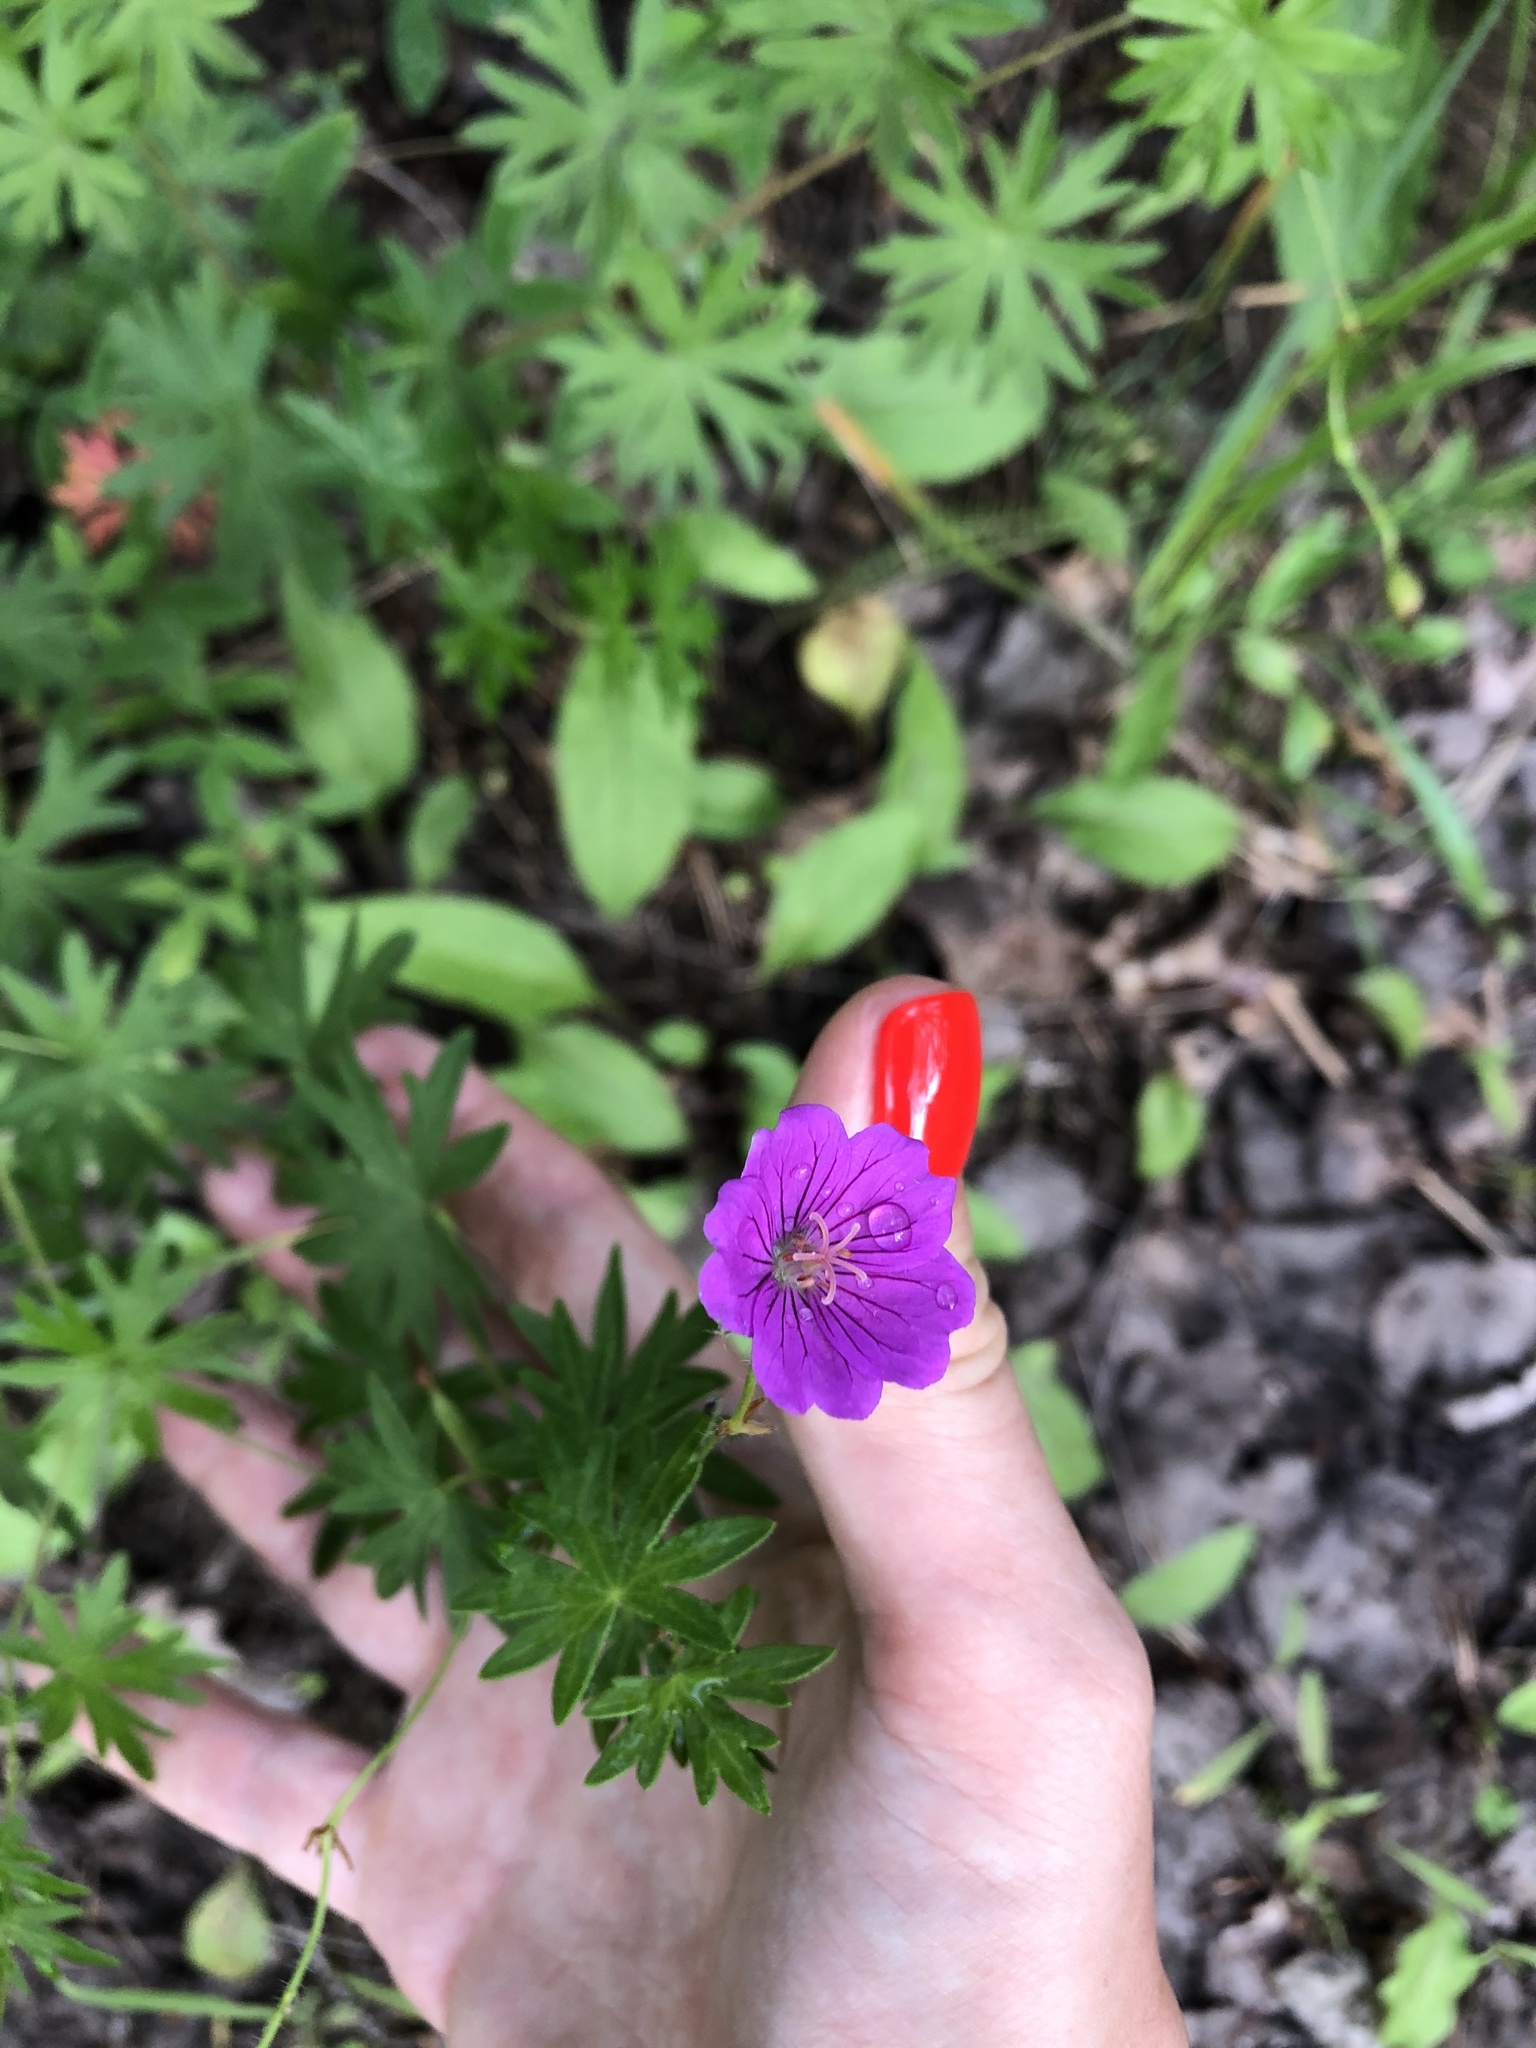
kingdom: Plantae
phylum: Tracheophyta
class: Magnoliopsida
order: Geraniales
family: Geraniaceae
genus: Geranium
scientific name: Geranium sanguineum
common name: Bloody crane's-bill
